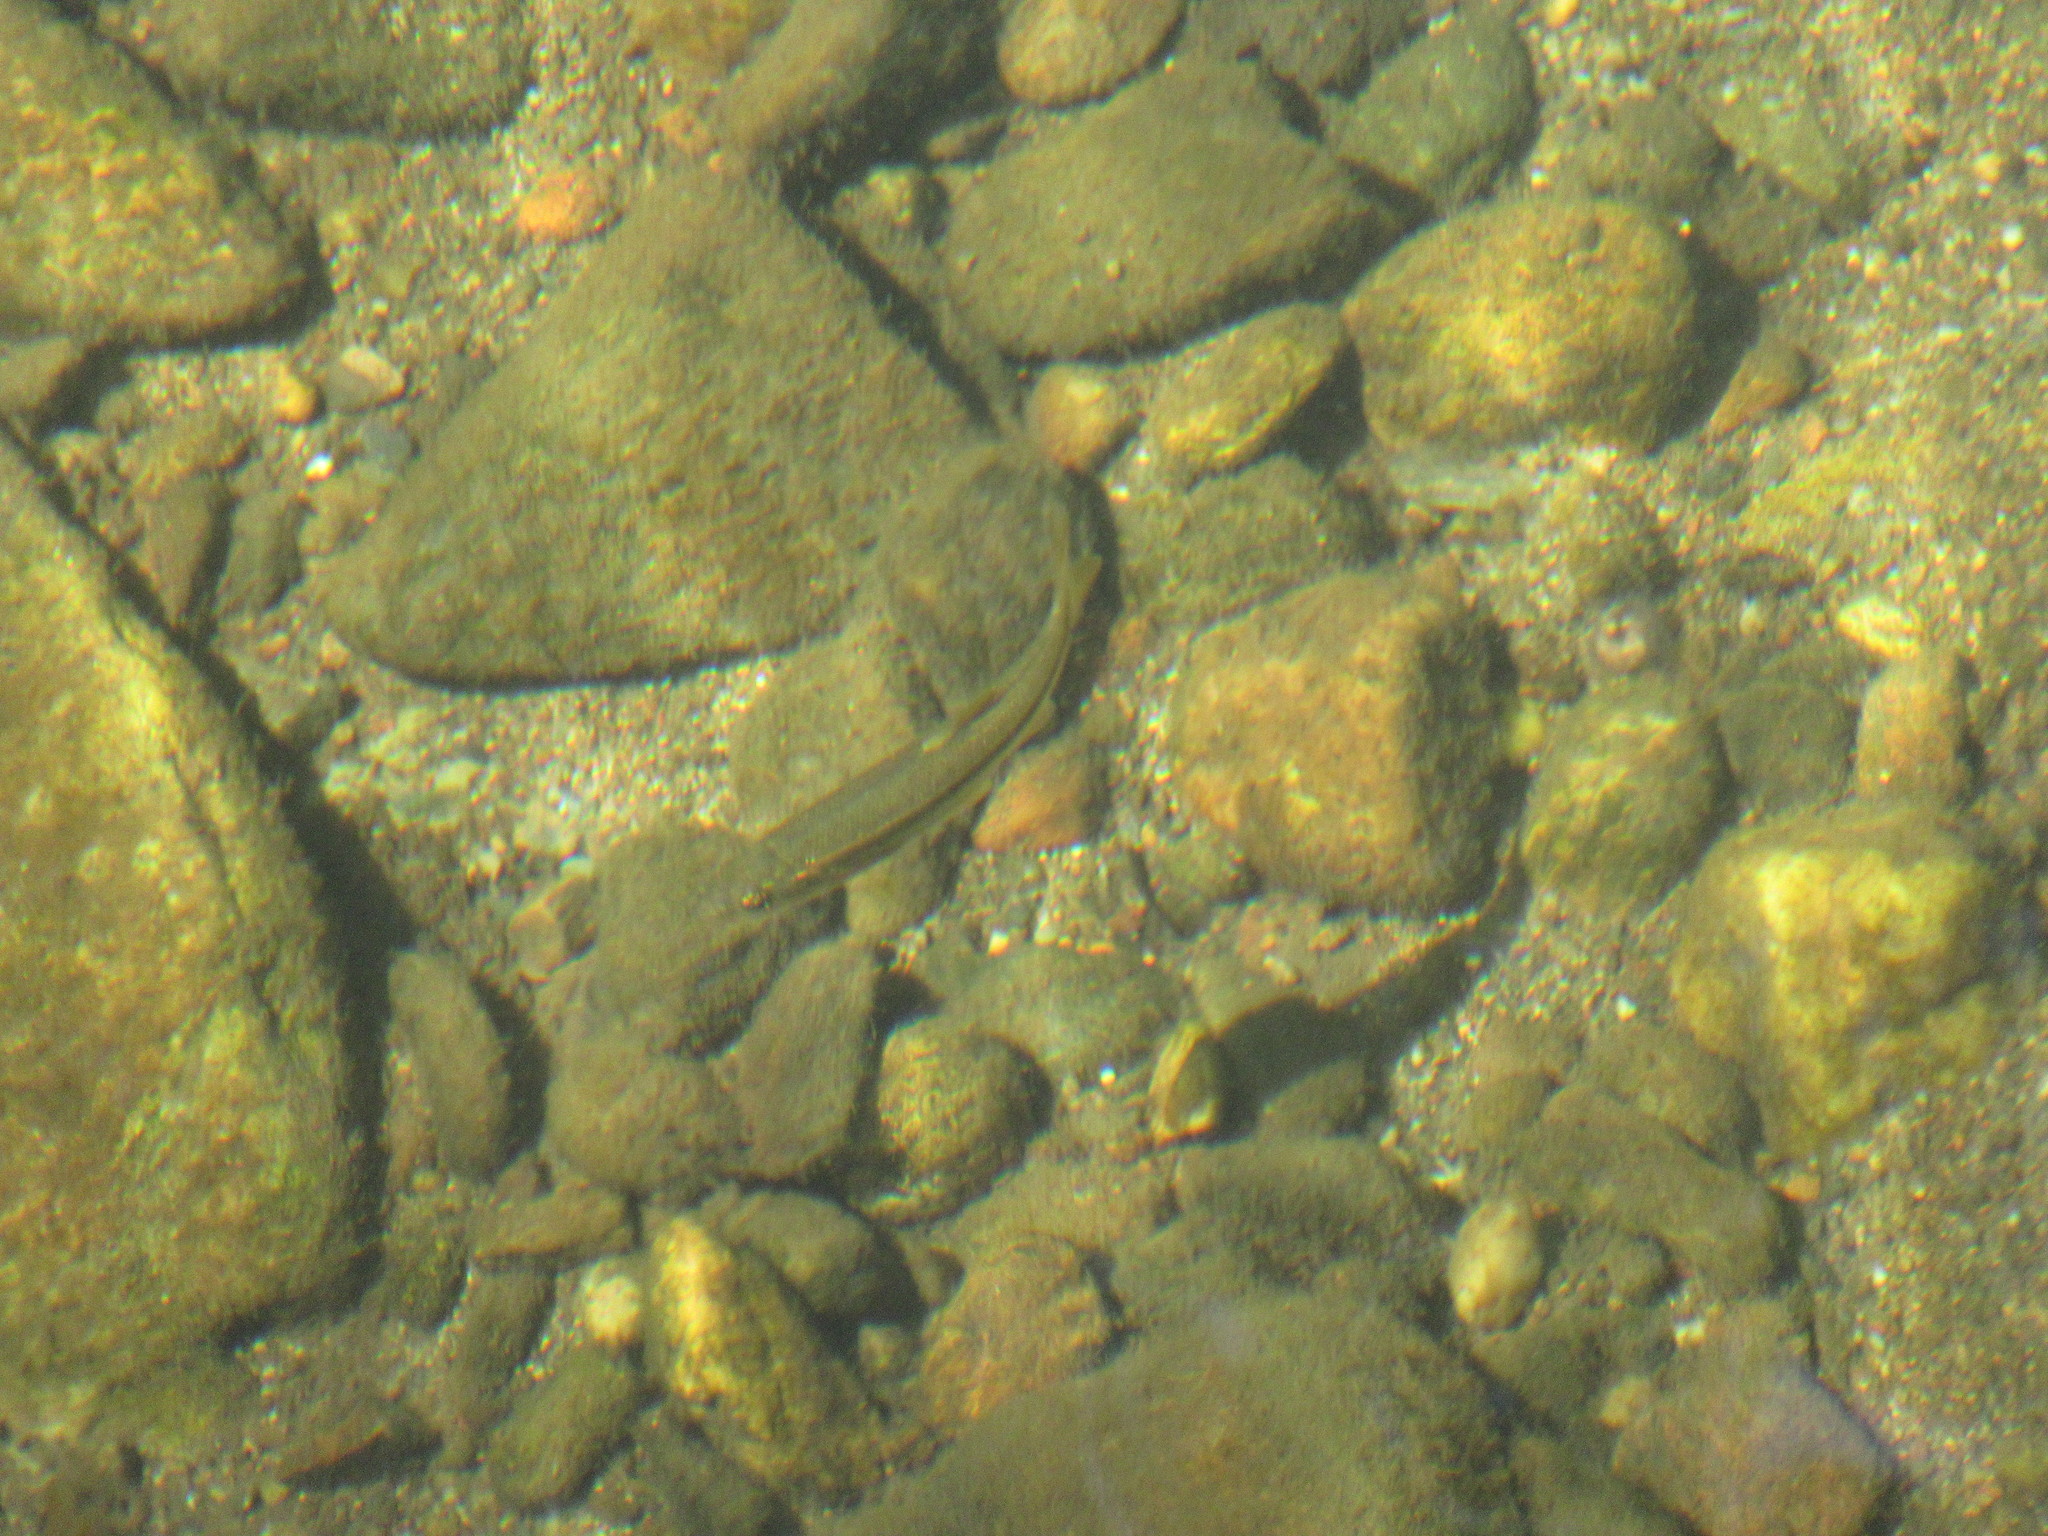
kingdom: Animalia
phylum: Chordata
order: Cypriniformes
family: Cyprinidae
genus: Rhinichthys
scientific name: Rhinichthys klamathensis
